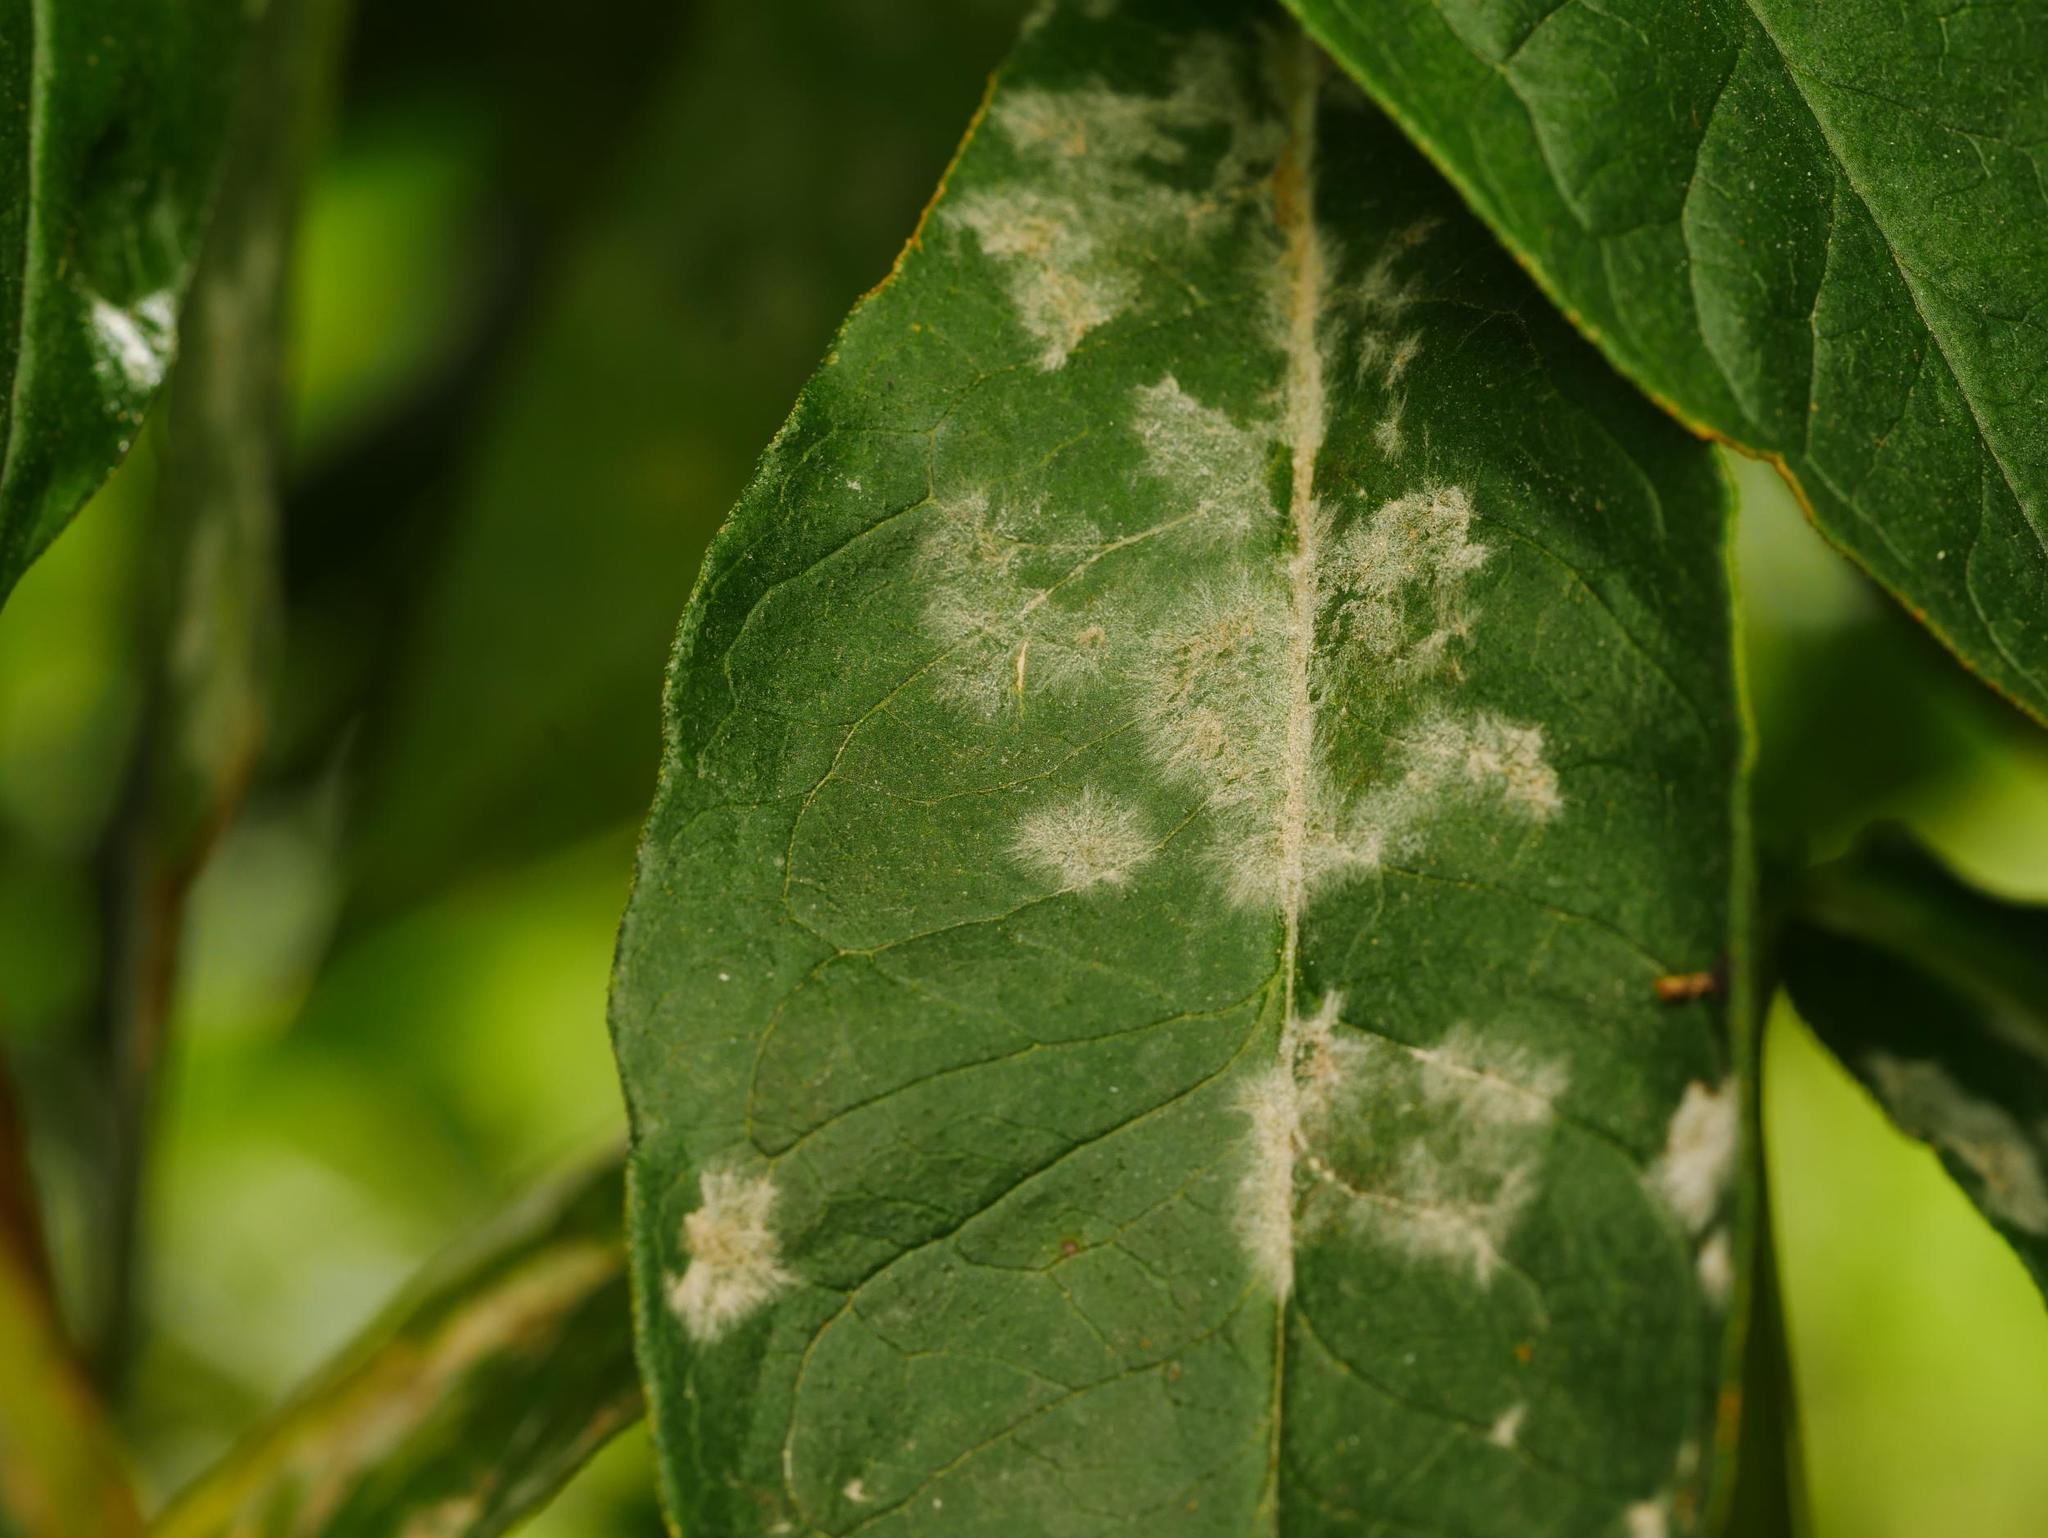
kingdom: Fungi
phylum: Ascomycota
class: Leotiomycetes
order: Helotiales
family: Erysiphaceae
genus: Golovinomyces
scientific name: Golovinomyces magnicellulatus
